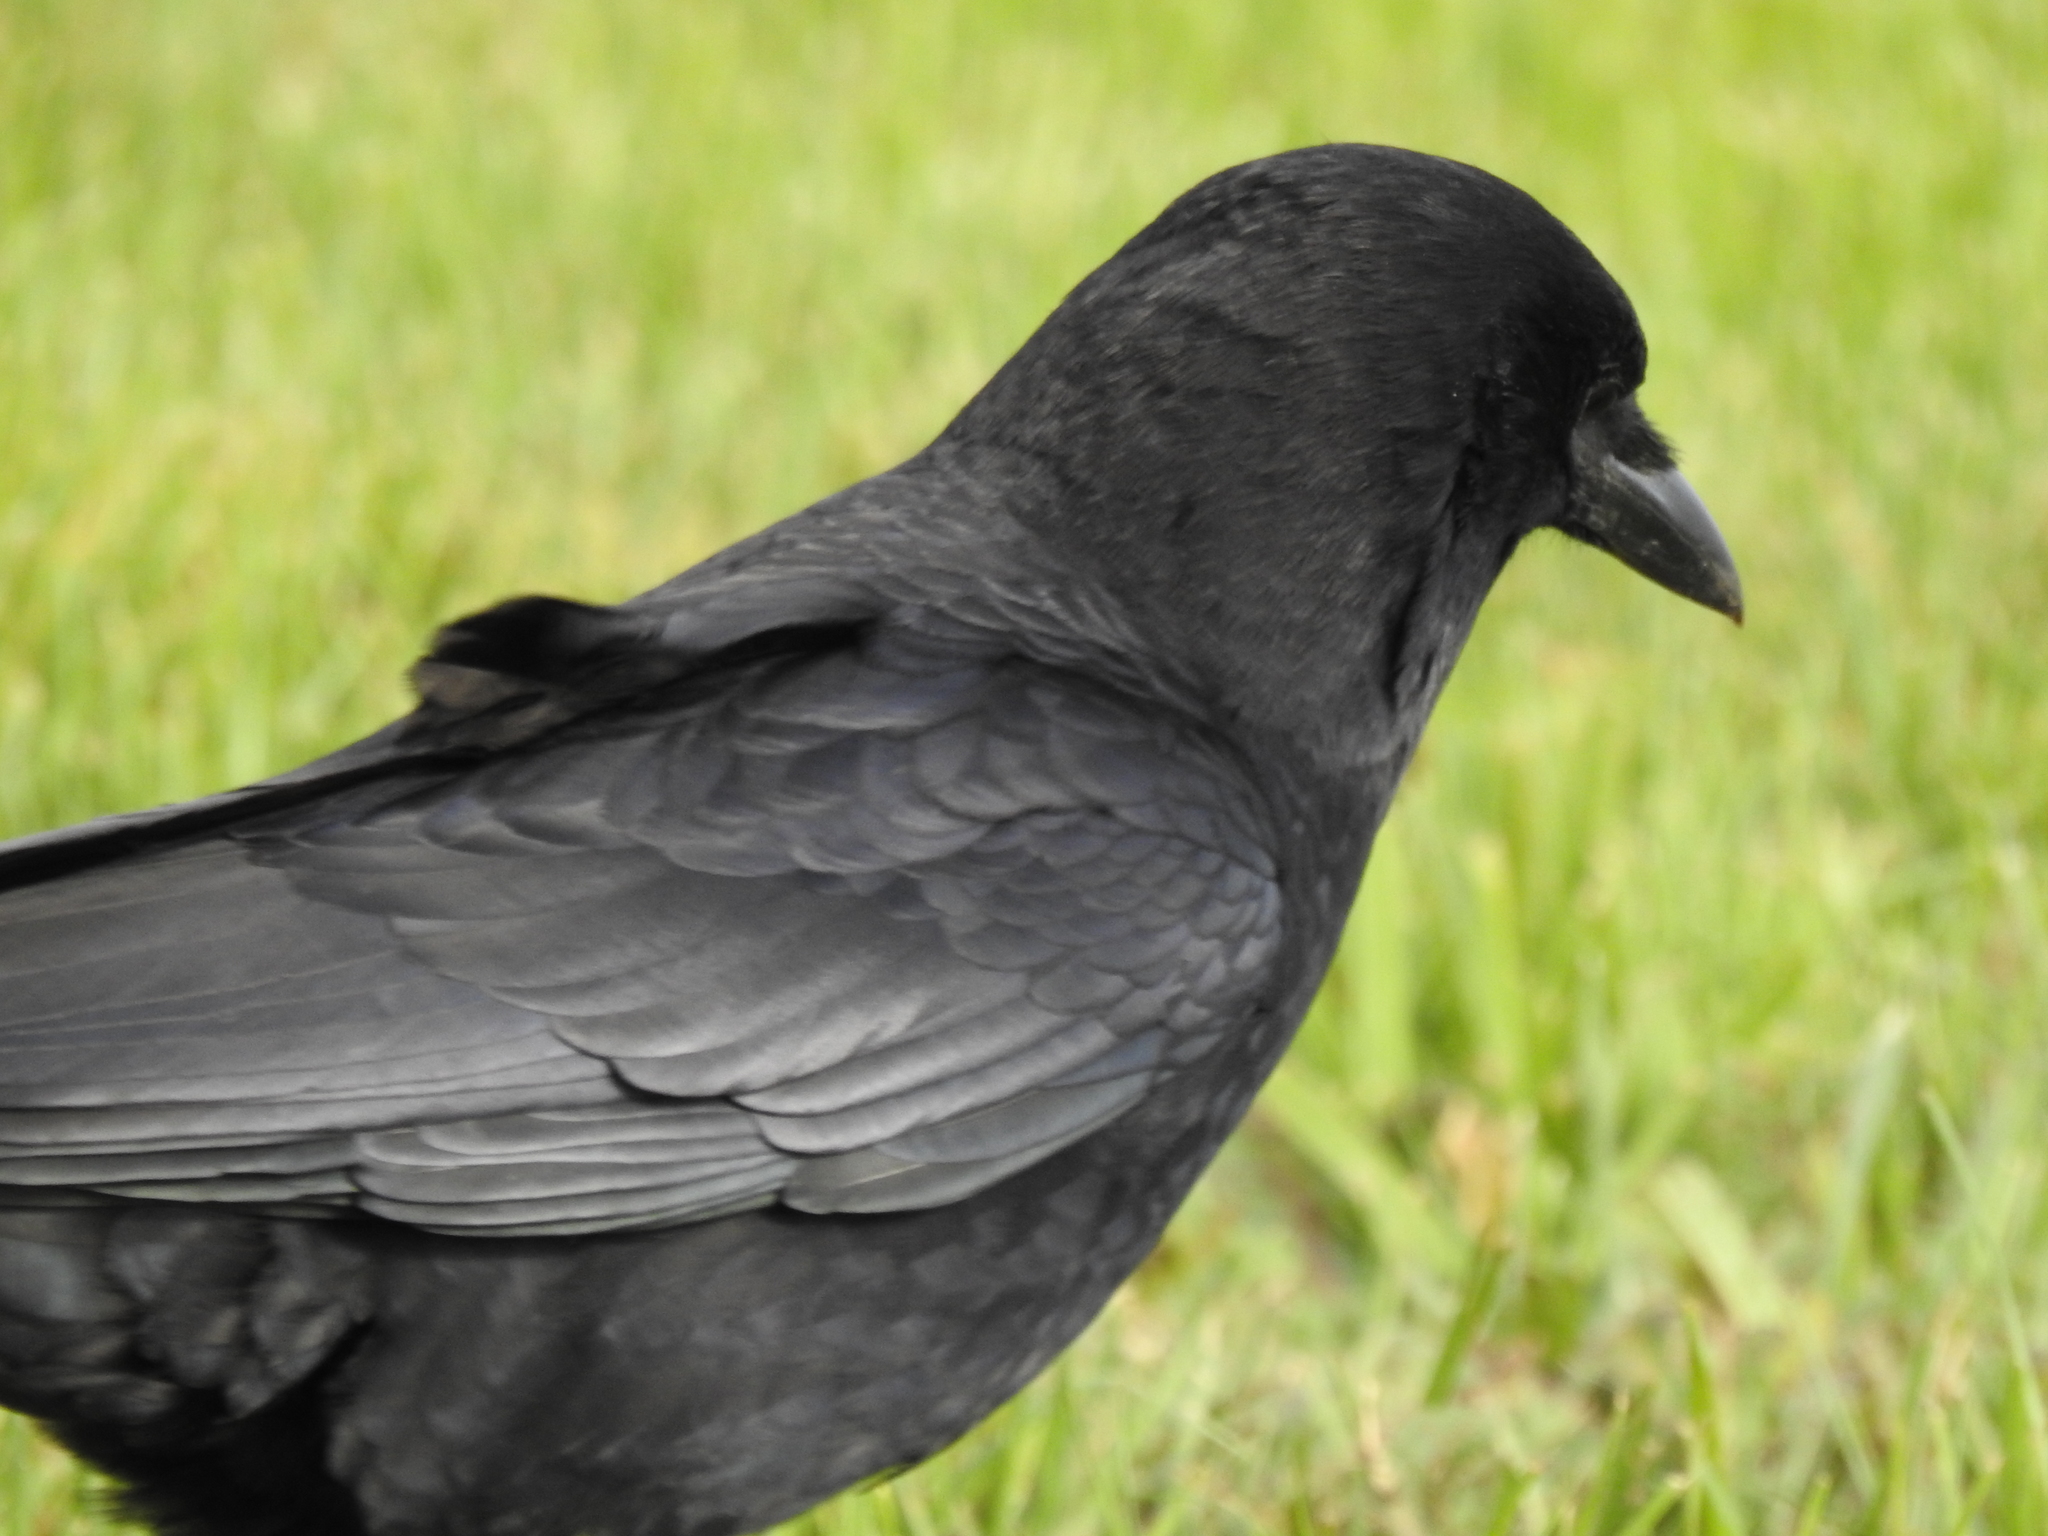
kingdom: Animalia
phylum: Chordata
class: Aves
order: Passeriformes
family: Corvidae
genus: Corvus
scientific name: Corvus brachyrhynchos
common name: American crow
